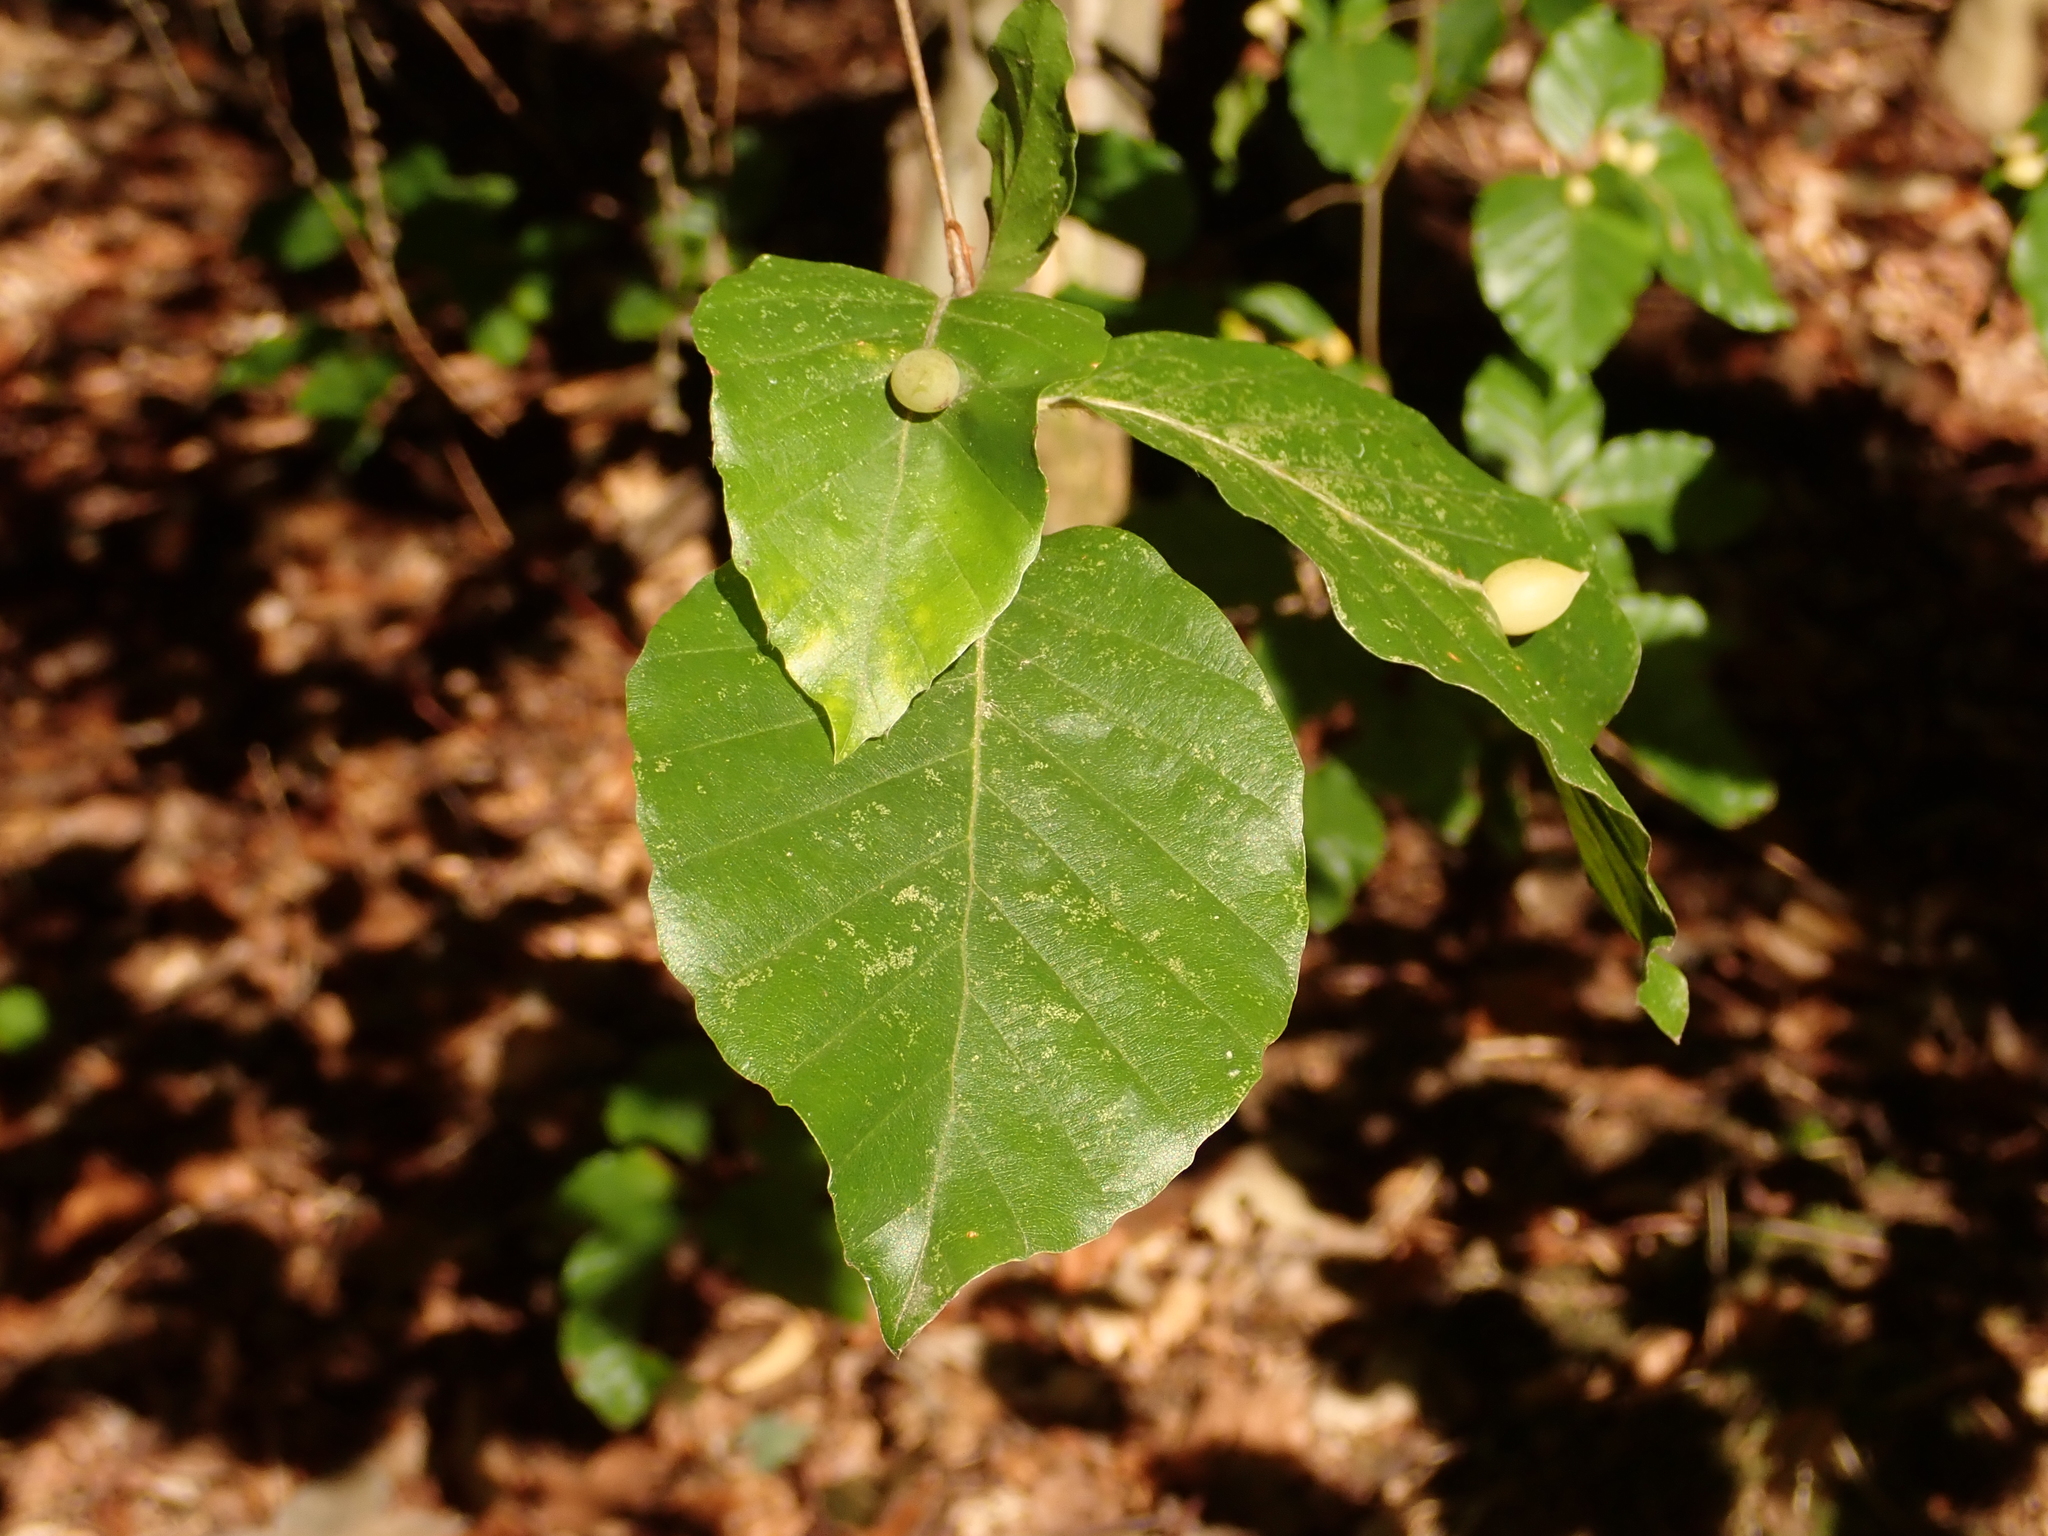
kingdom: Plantae
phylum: Tracheophyta
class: Magnoliopsida
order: Fagales
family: Fagaceae
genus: Fagus
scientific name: Fagus sylvatica
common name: Beech
